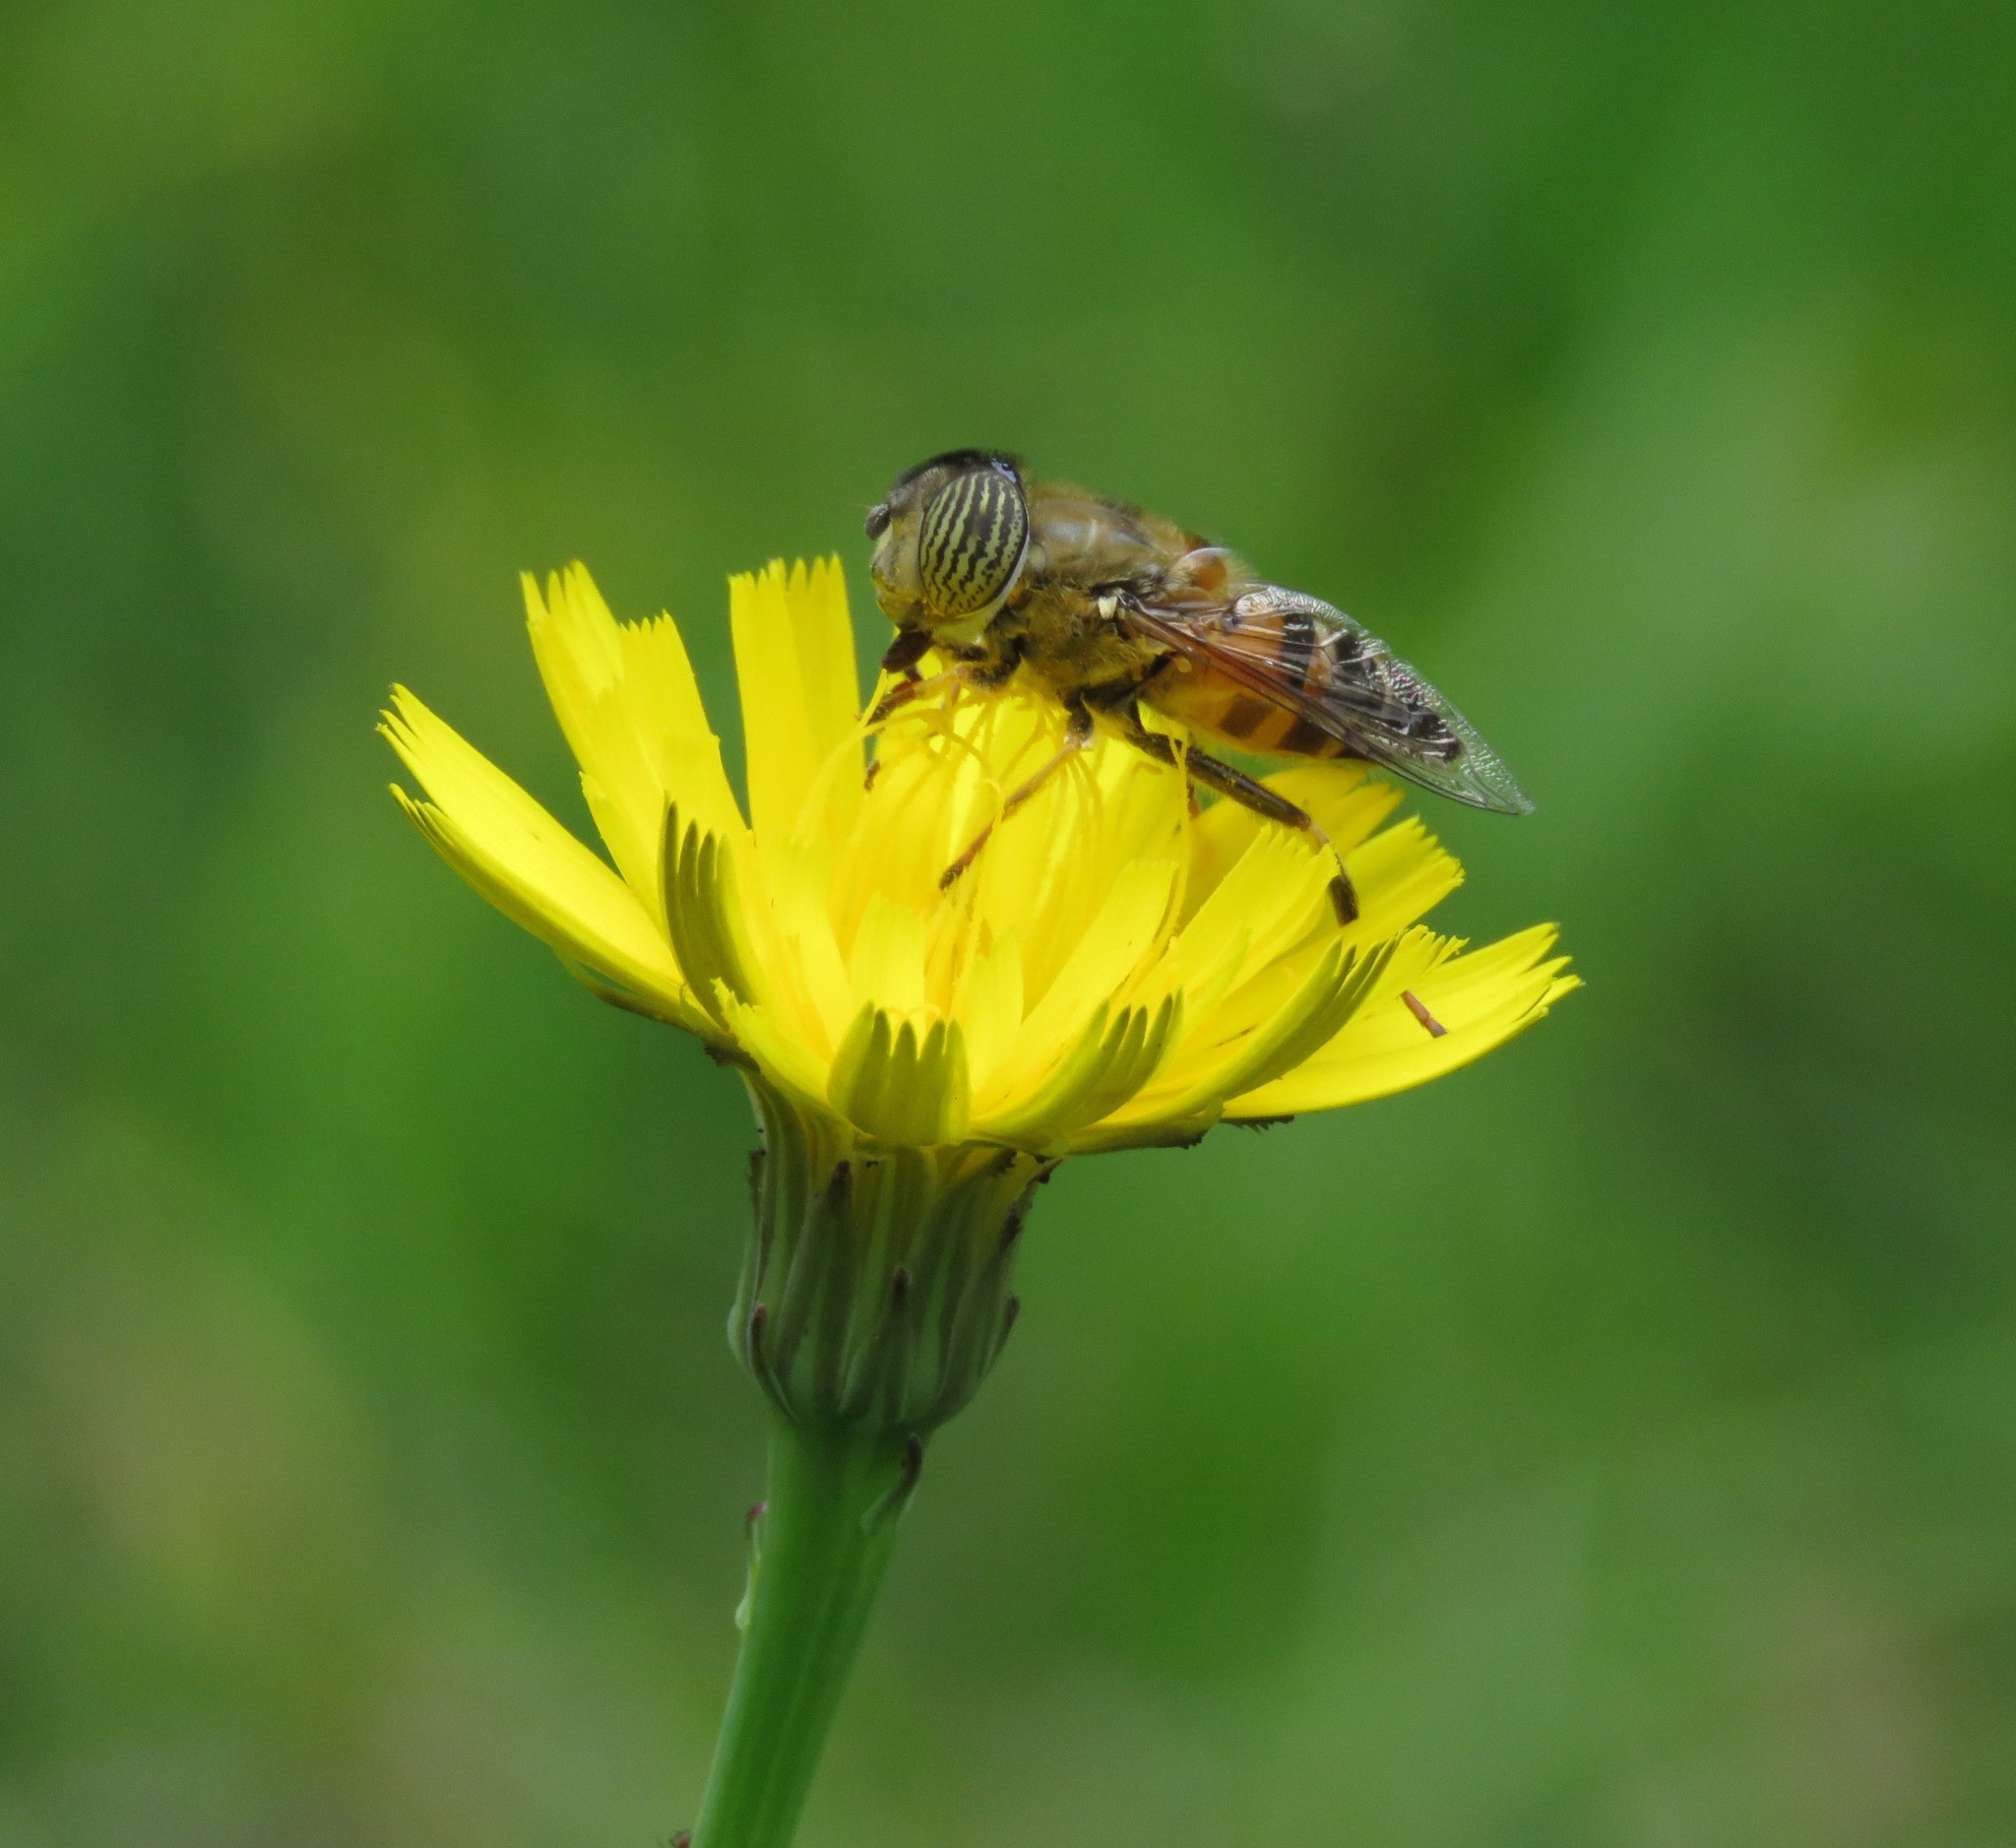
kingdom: Animalia
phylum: Arthropoda
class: Insecta
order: Diptera
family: Syrphidae
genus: Eristalinus
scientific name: Eristalinus taeniops
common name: Syrphid fly
